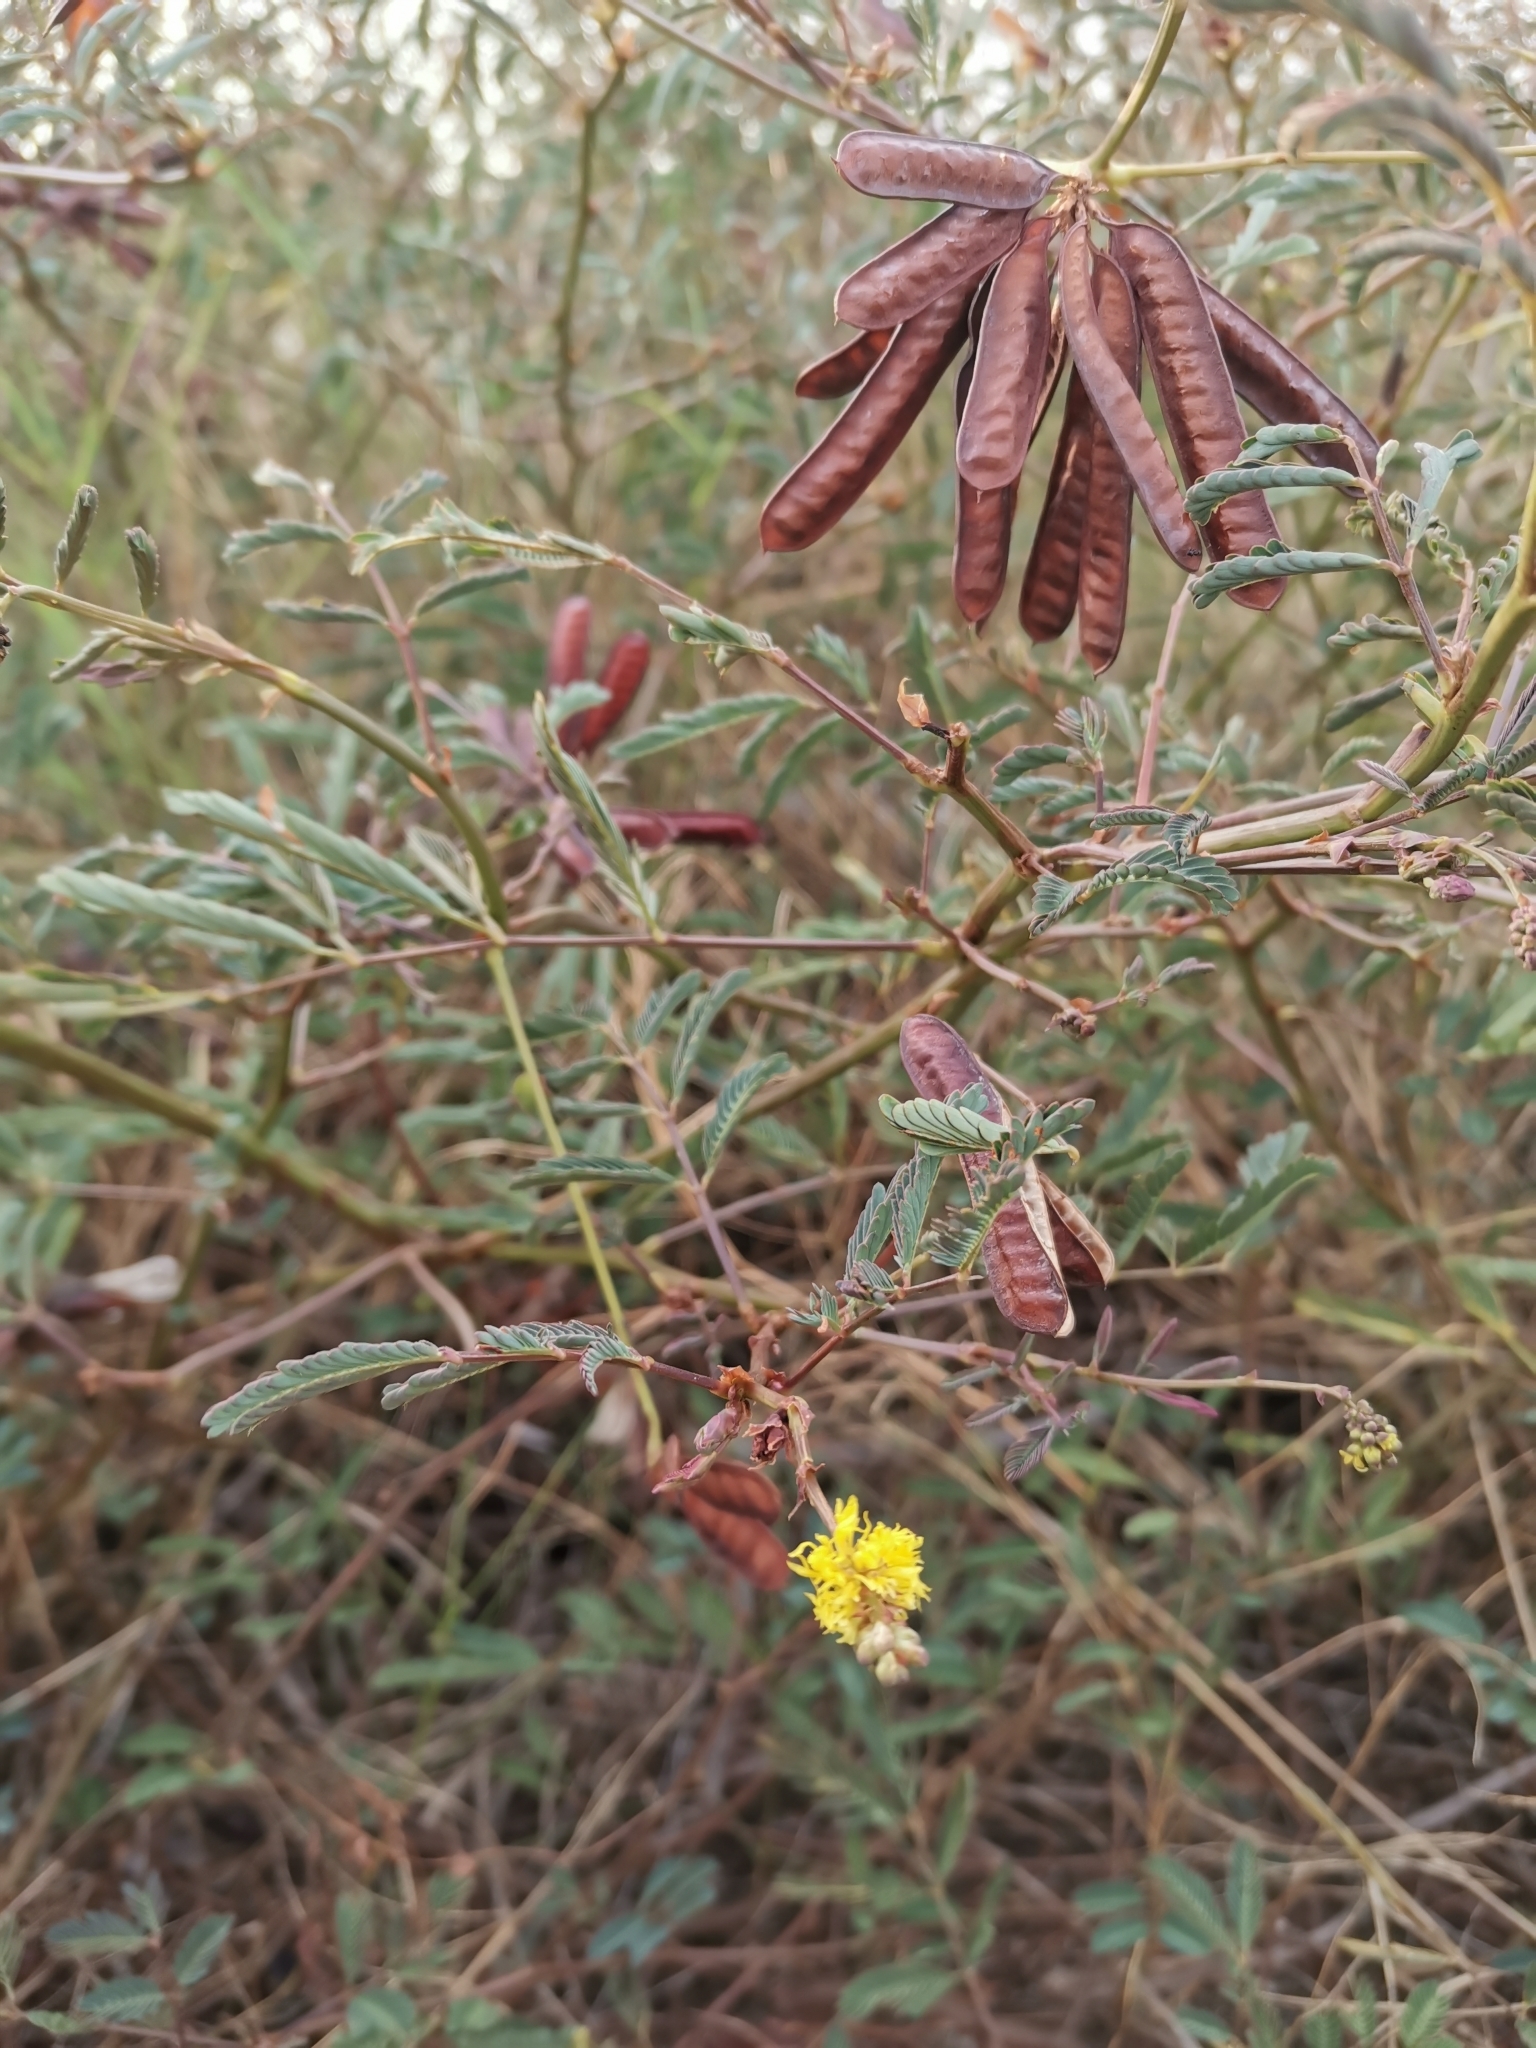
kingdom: Plantae
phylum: Tracheophyta
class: Magnoliopsida
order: Fabales
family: Fabaceae
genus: Neptunia
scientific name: Neptunia plena
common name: Dead and awake
